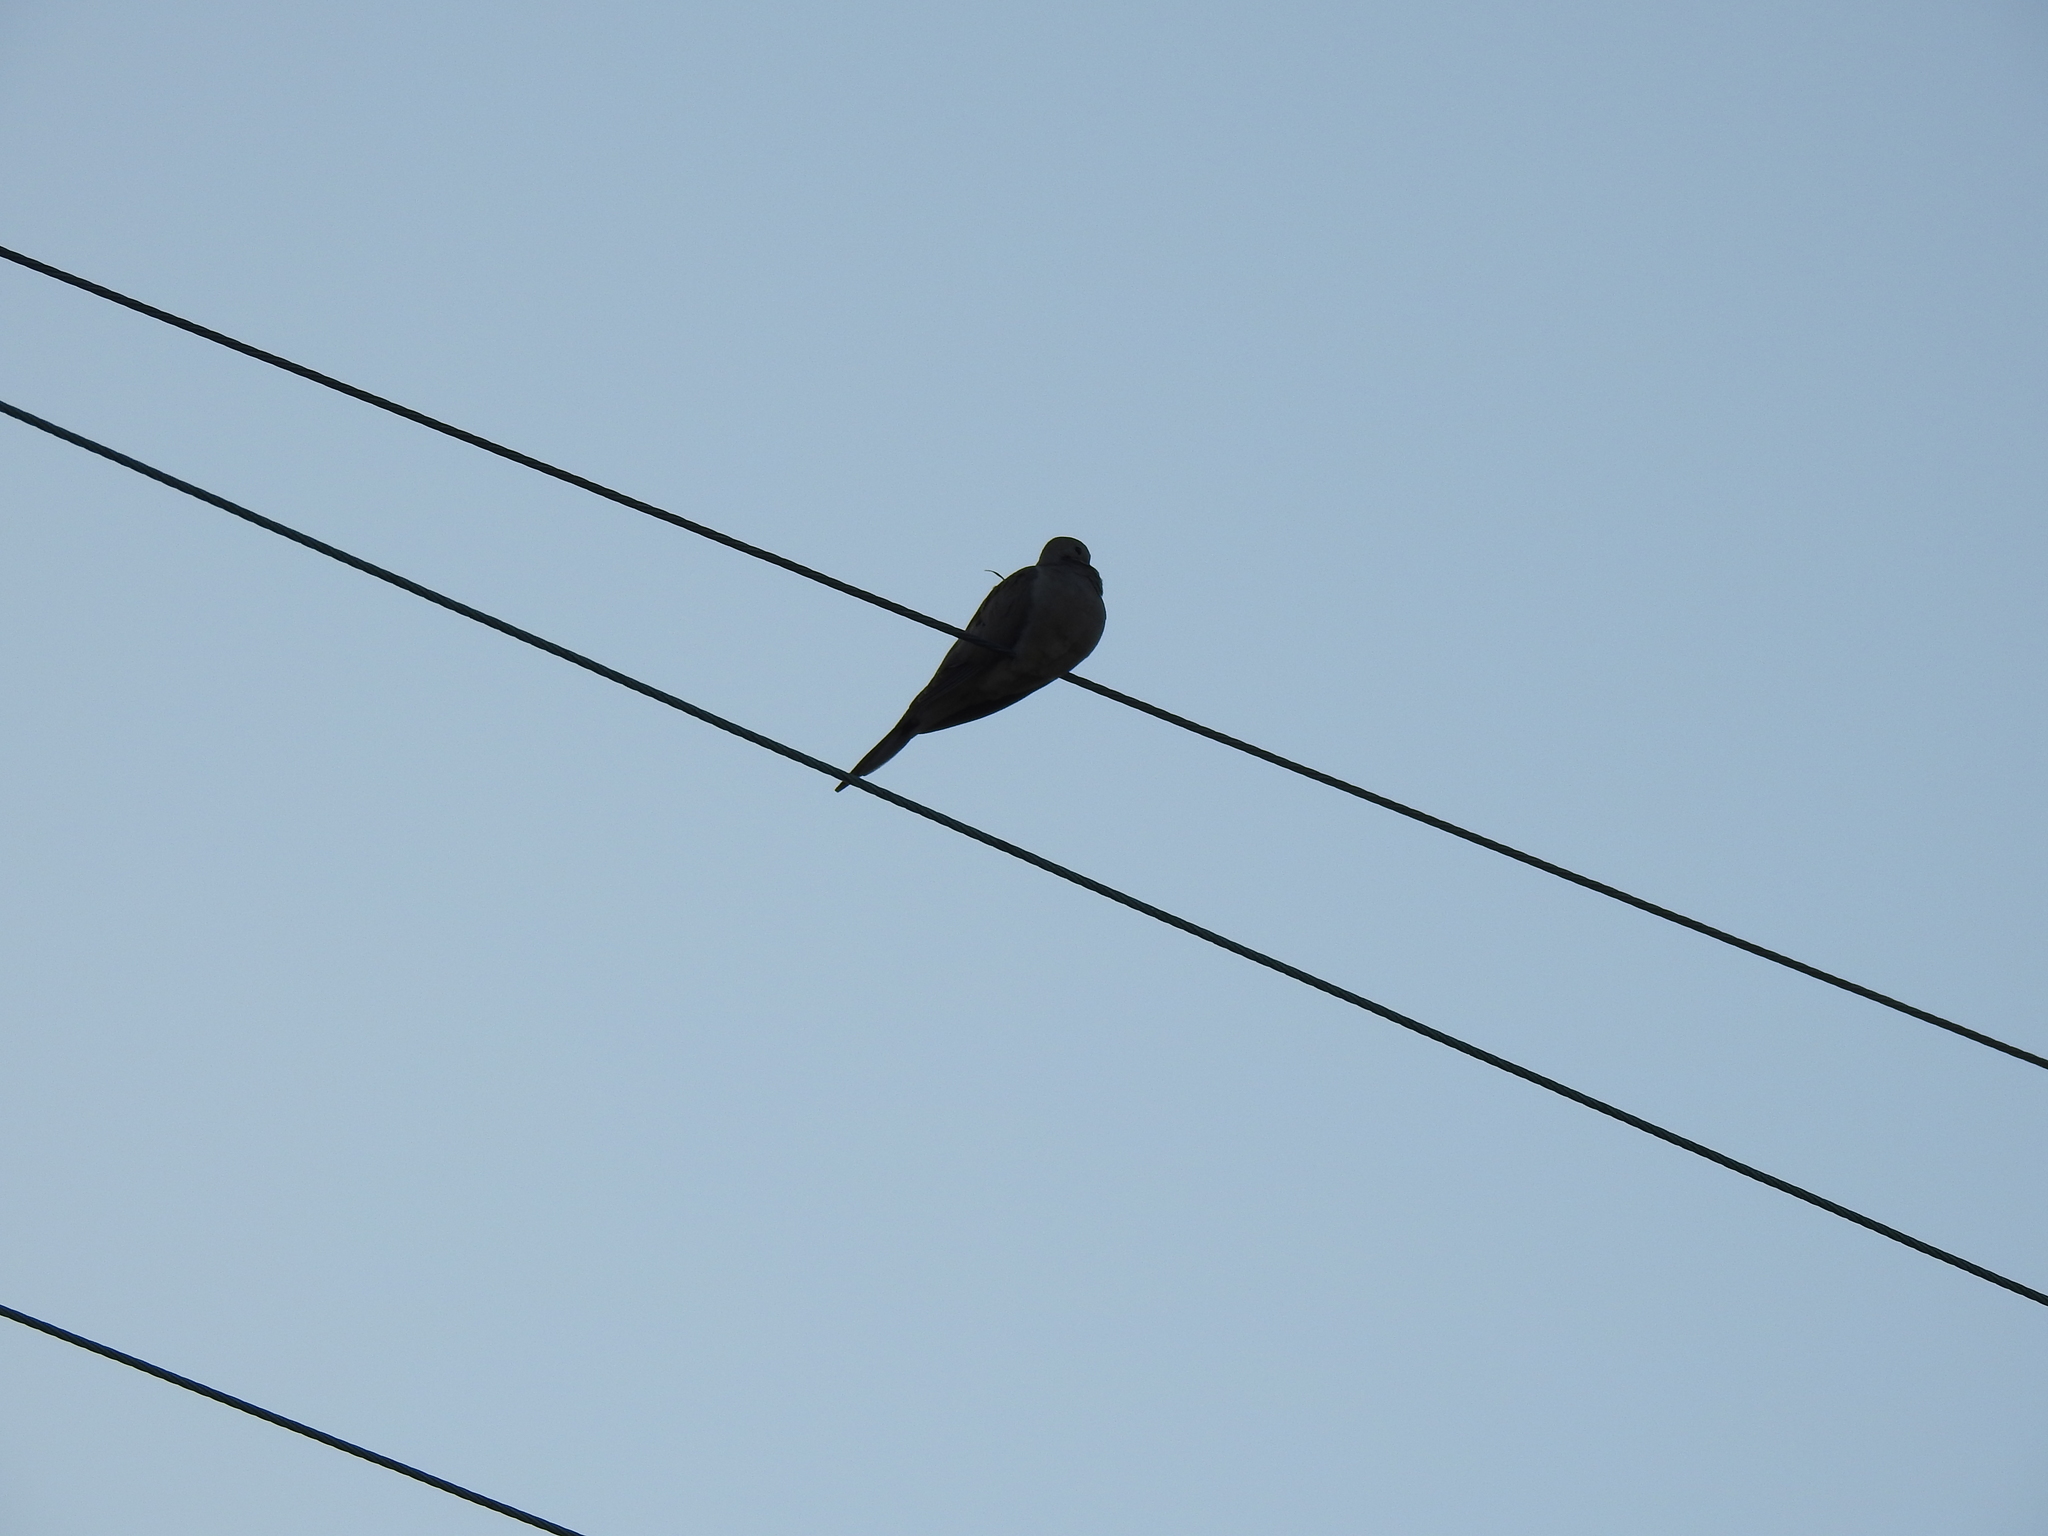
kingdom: Animalia
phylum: Chordata
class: Aves
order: Columbiformes
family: Columbidae
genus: Zenaida
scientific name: Zenaida macroura
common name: Mourning dove
